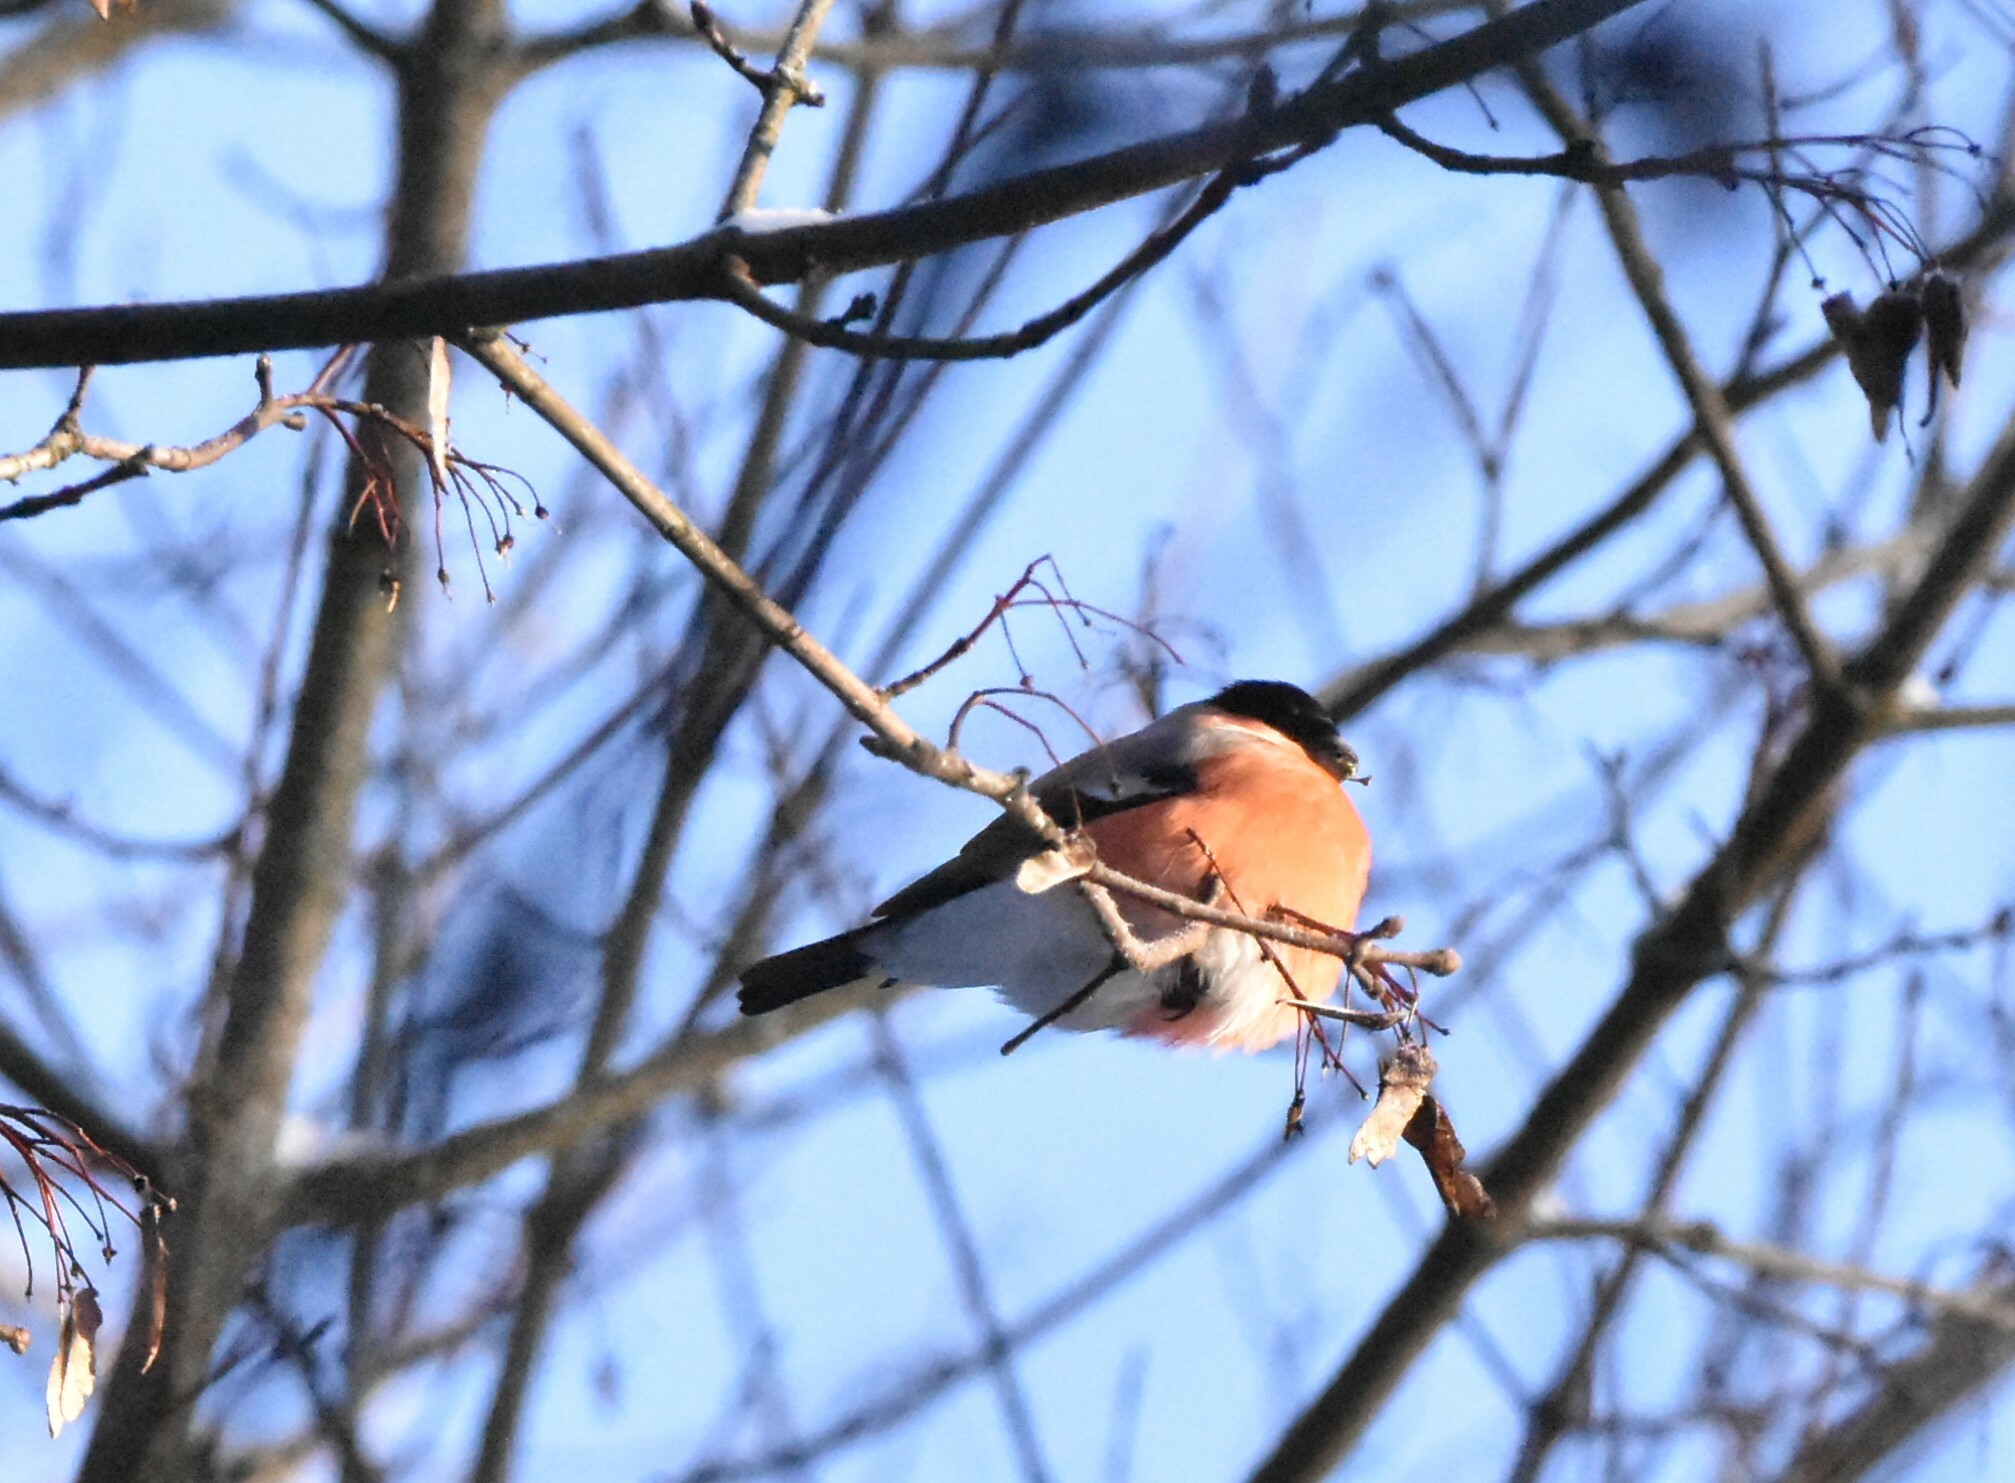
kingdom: Animalia
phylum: Chordata
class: Aves
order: Passeriformes
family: Fringillidae
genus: Pyrrhula
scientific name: Pyrrhula pyrrhula
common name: Eurasian bullfinch
